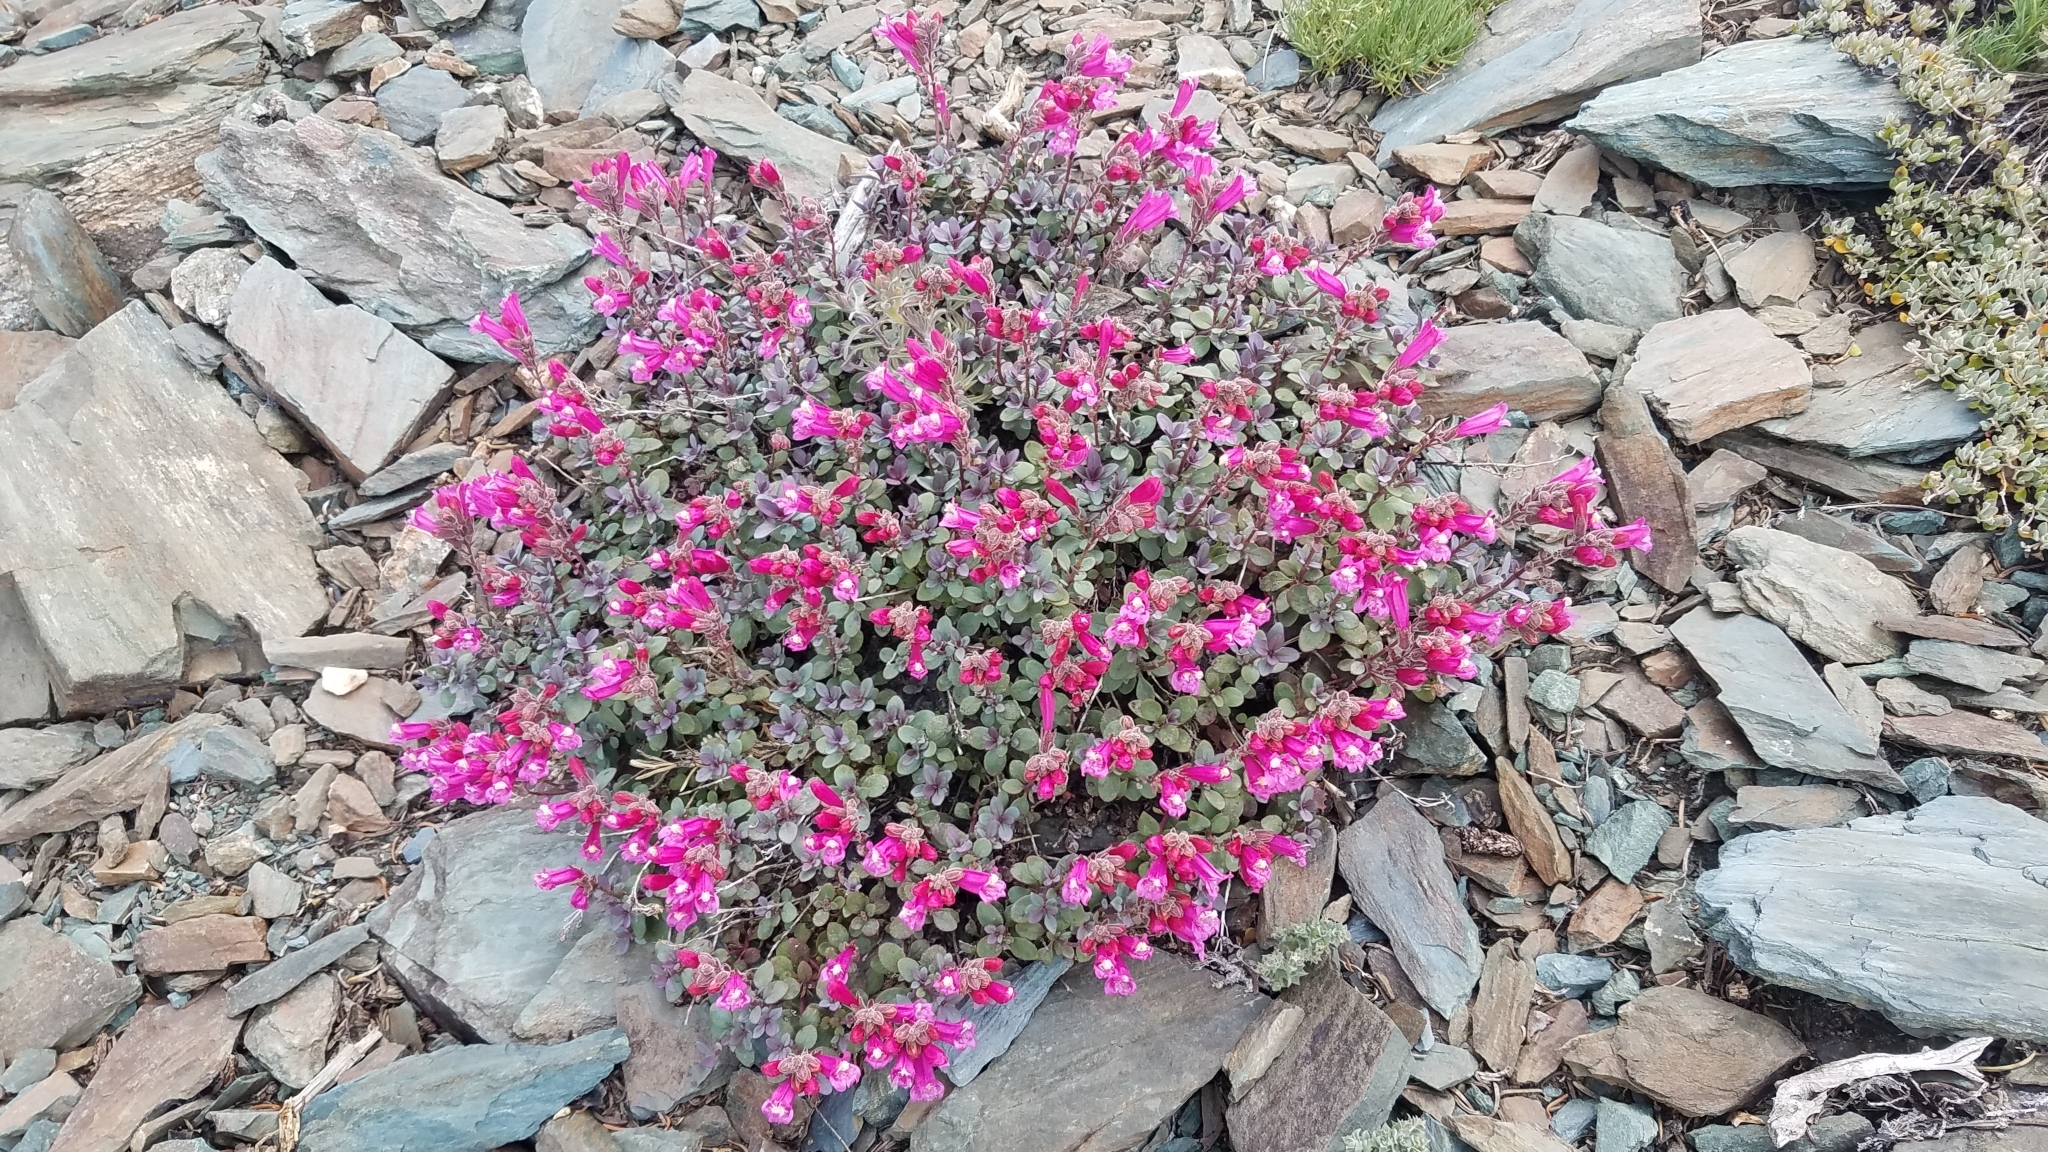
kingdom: Plantae
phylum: Tracheophyta
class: Magnoliopsida
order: Lamiales
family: Plantaginaceae
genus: Penstemon
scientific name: Penstemon newberryi
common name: Mountain-pride
